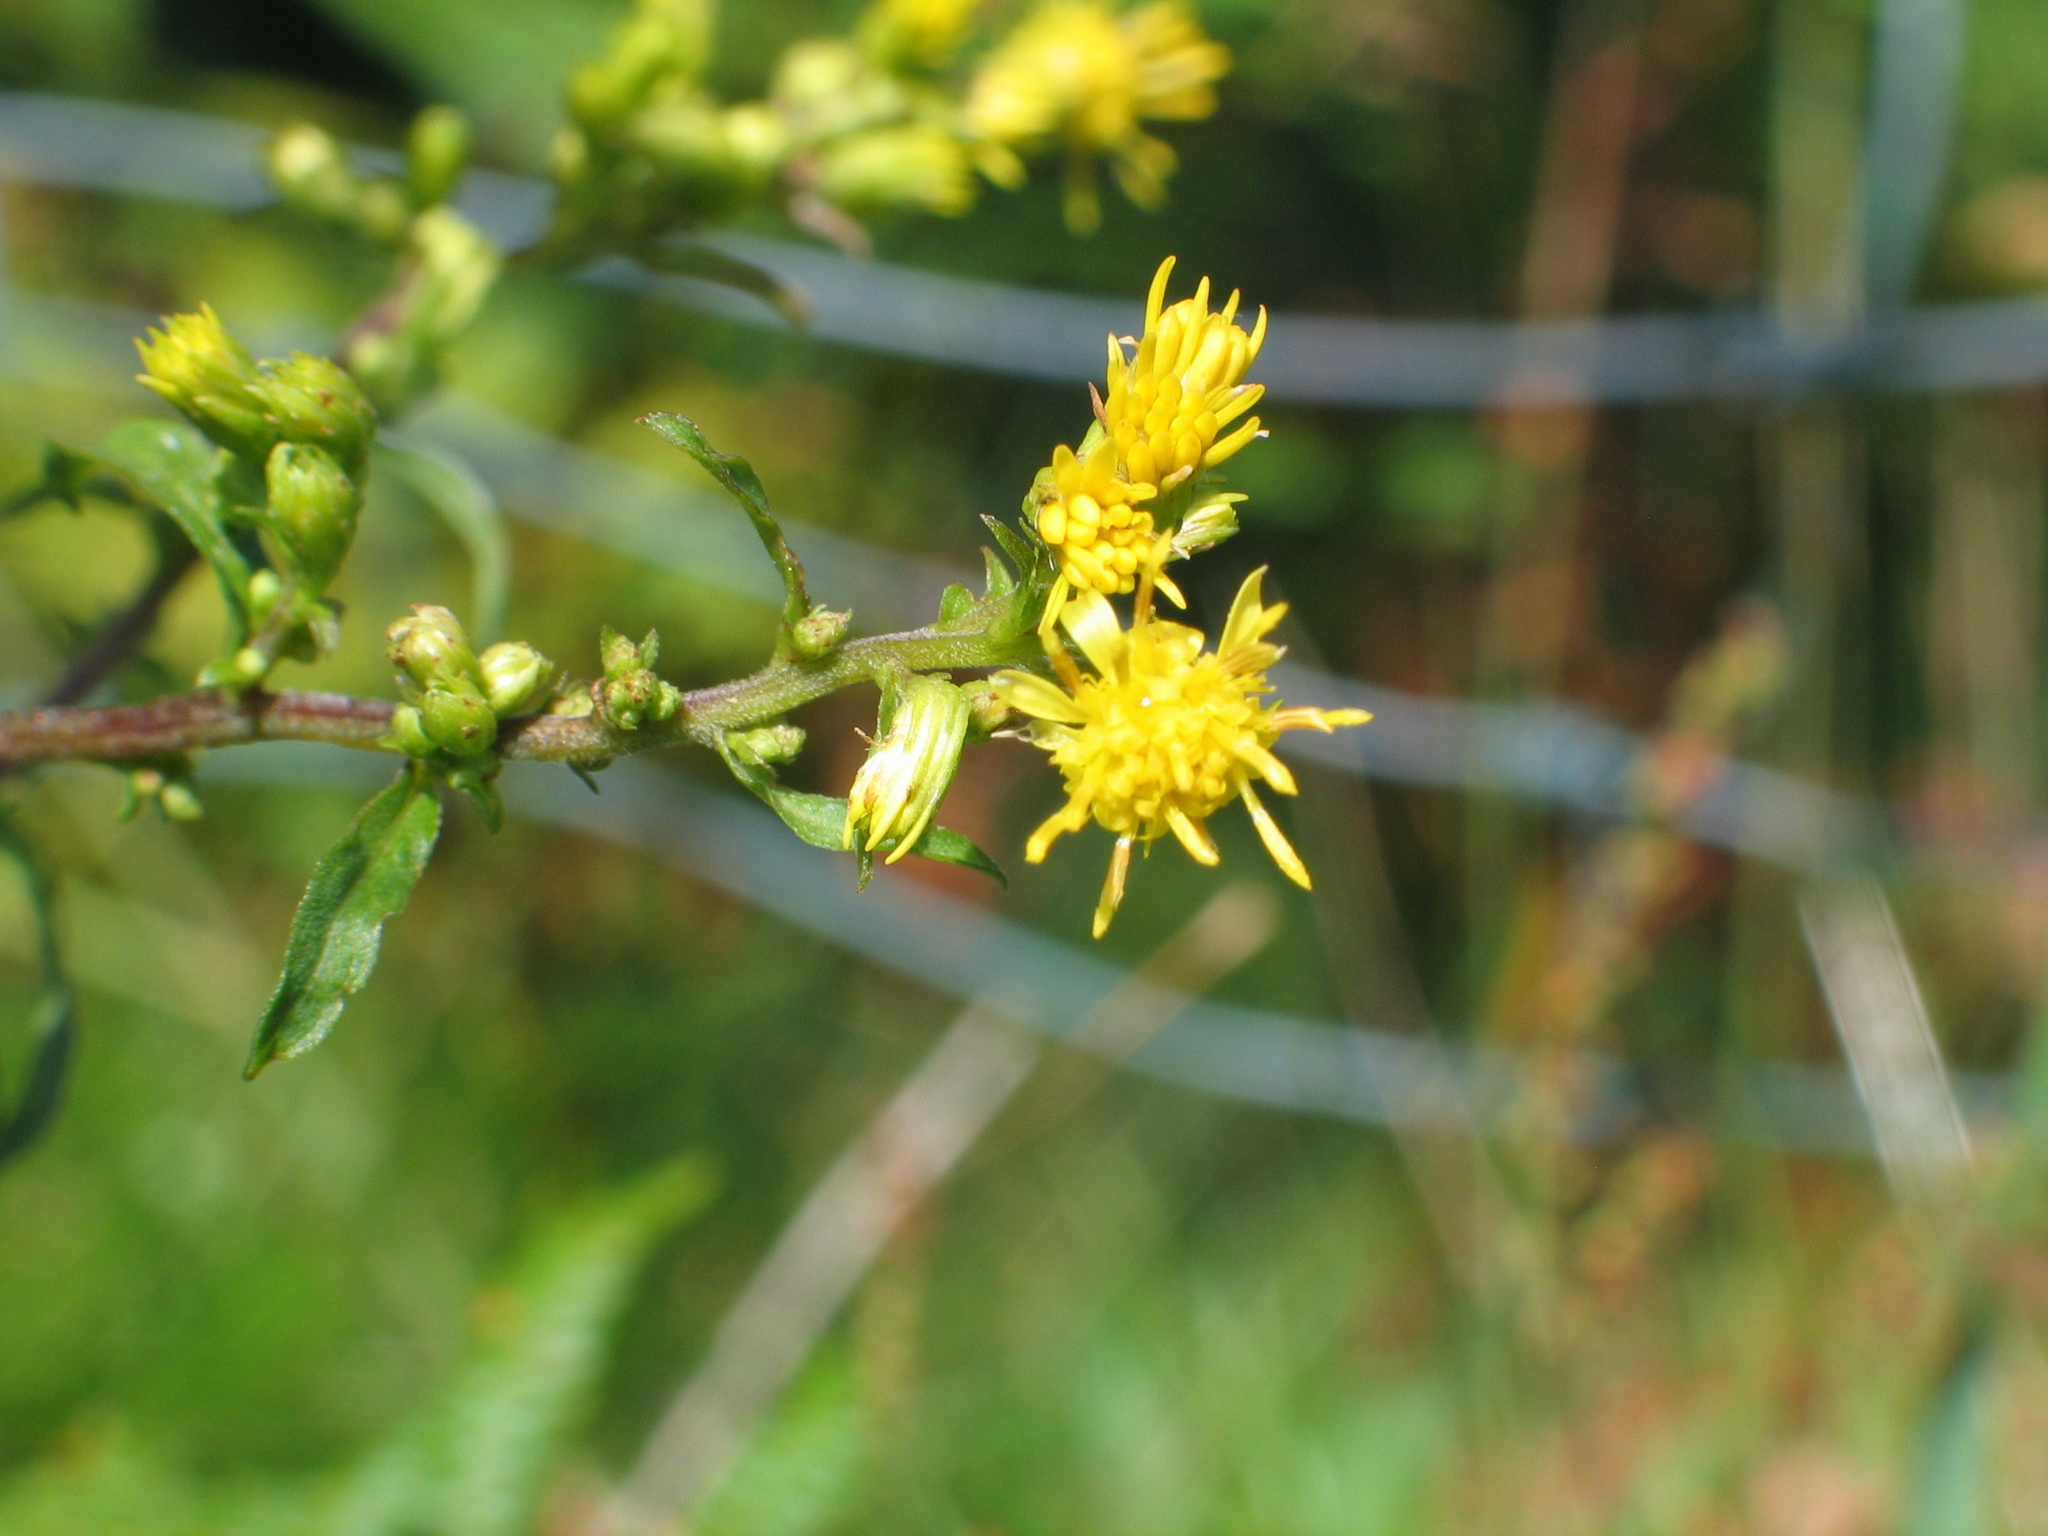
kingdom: Plantae
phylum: Tracheophyta
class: Magnoliopsida
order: Asterales
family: Asteraceae
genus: Solidago
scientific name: Solidago virgaurea
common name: Goldenrod
